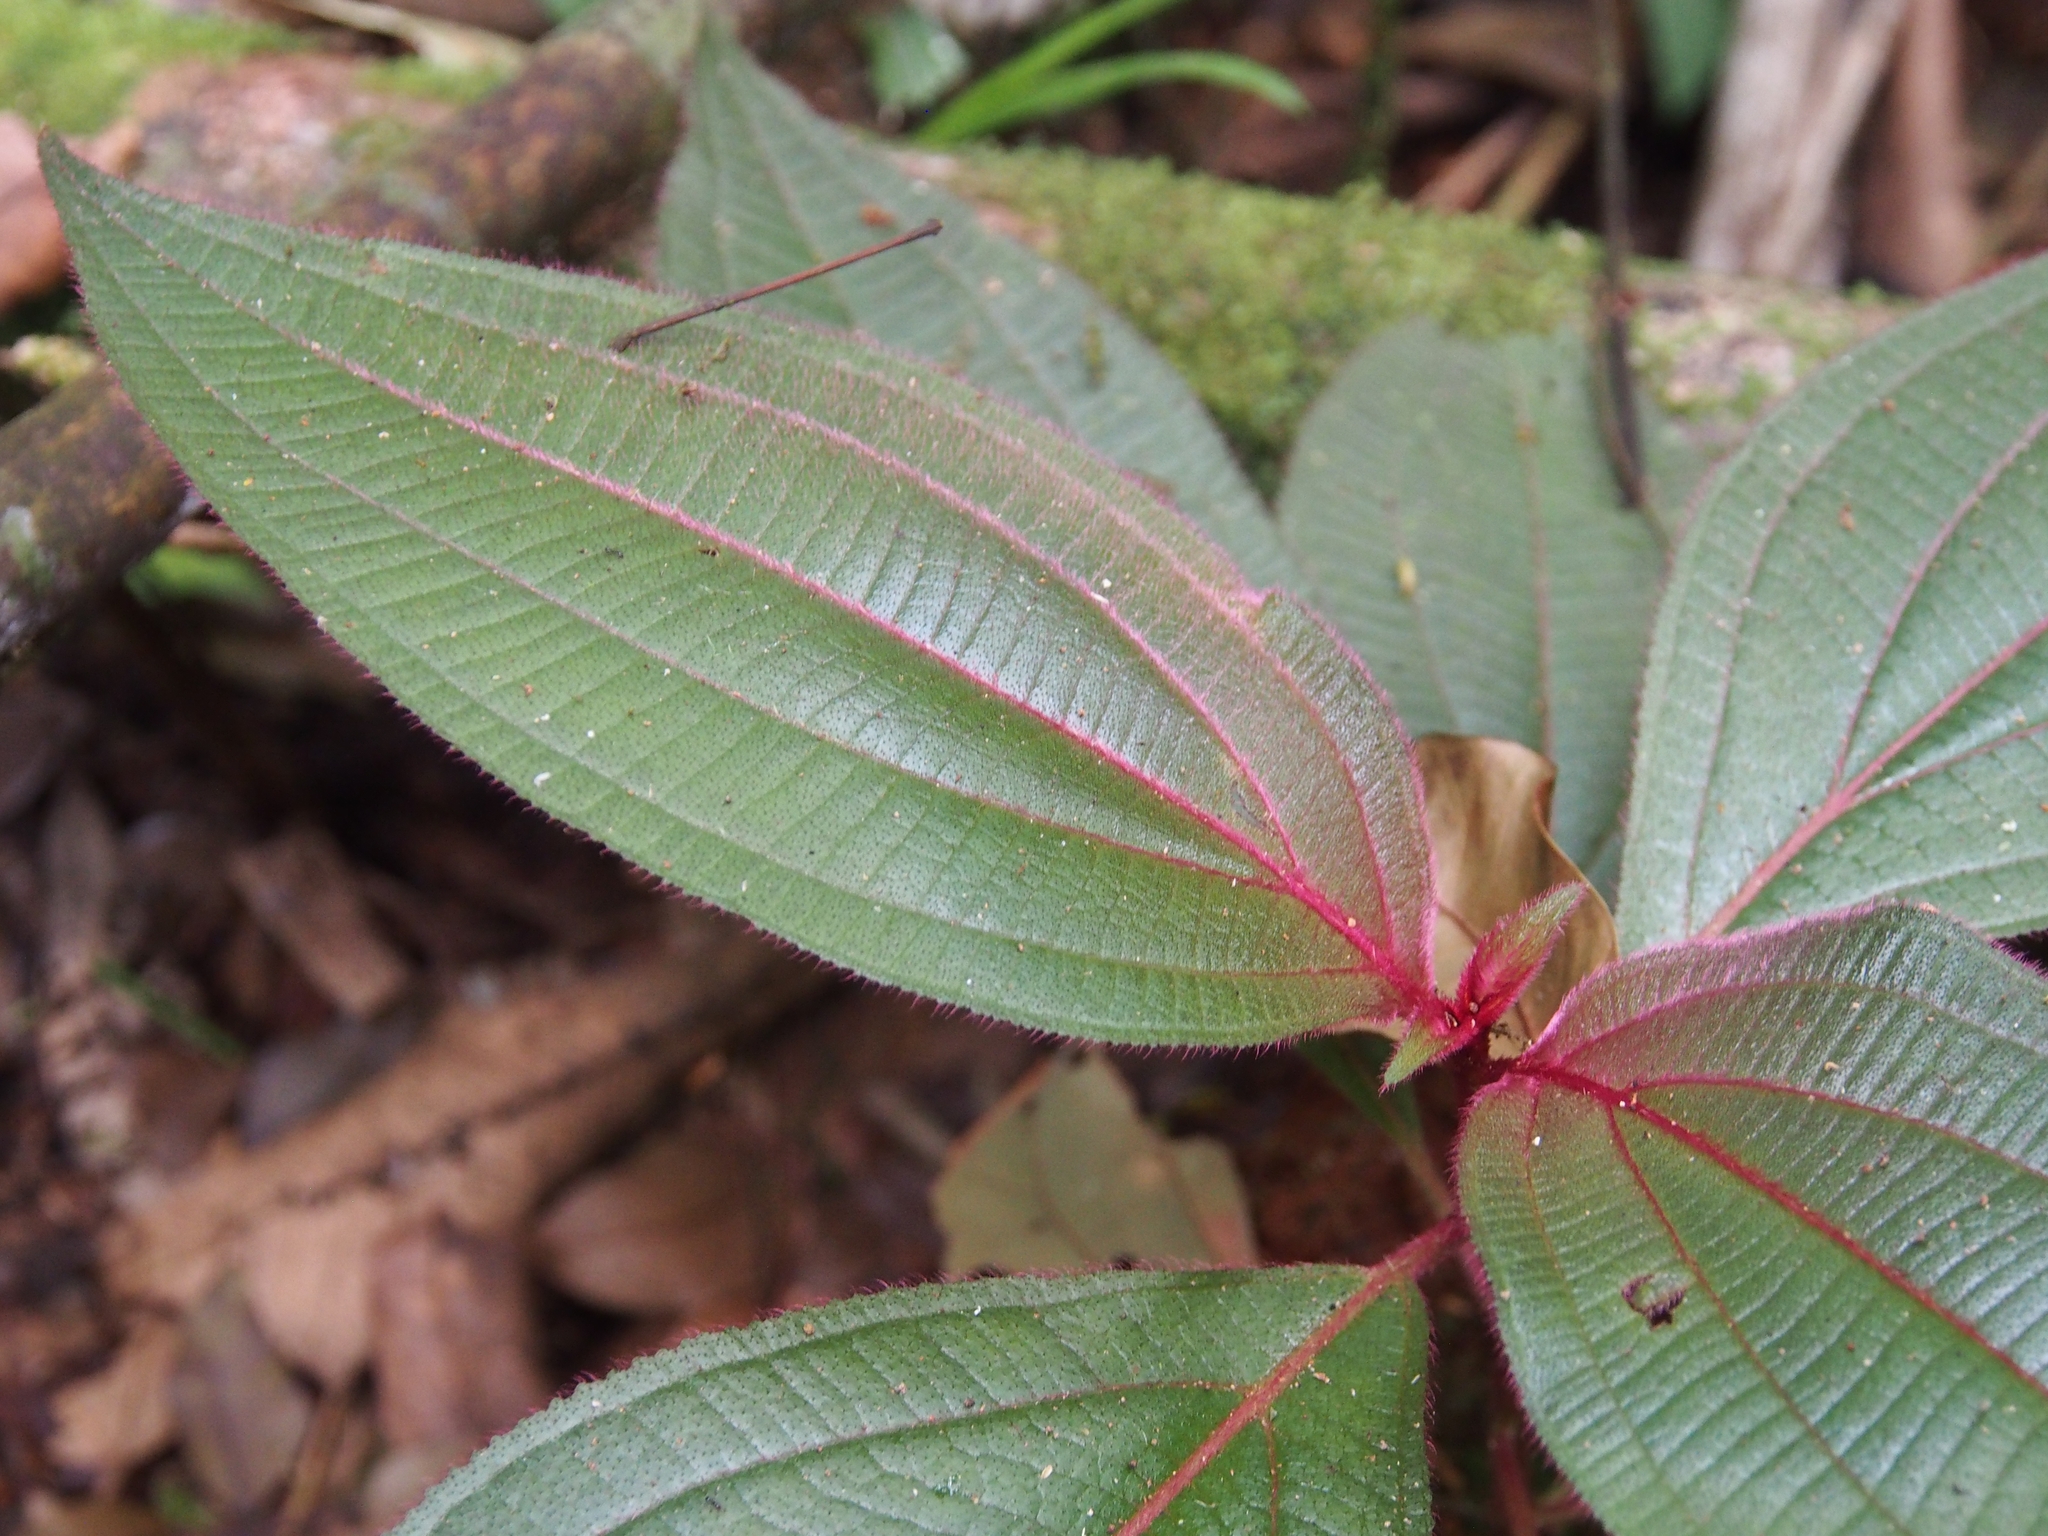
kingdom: Plantae
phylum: Tracheophyta
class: Magnoliopsida
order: Myrtales
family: Melastomataceae
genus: Miconia
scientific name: Miconia nervosa
